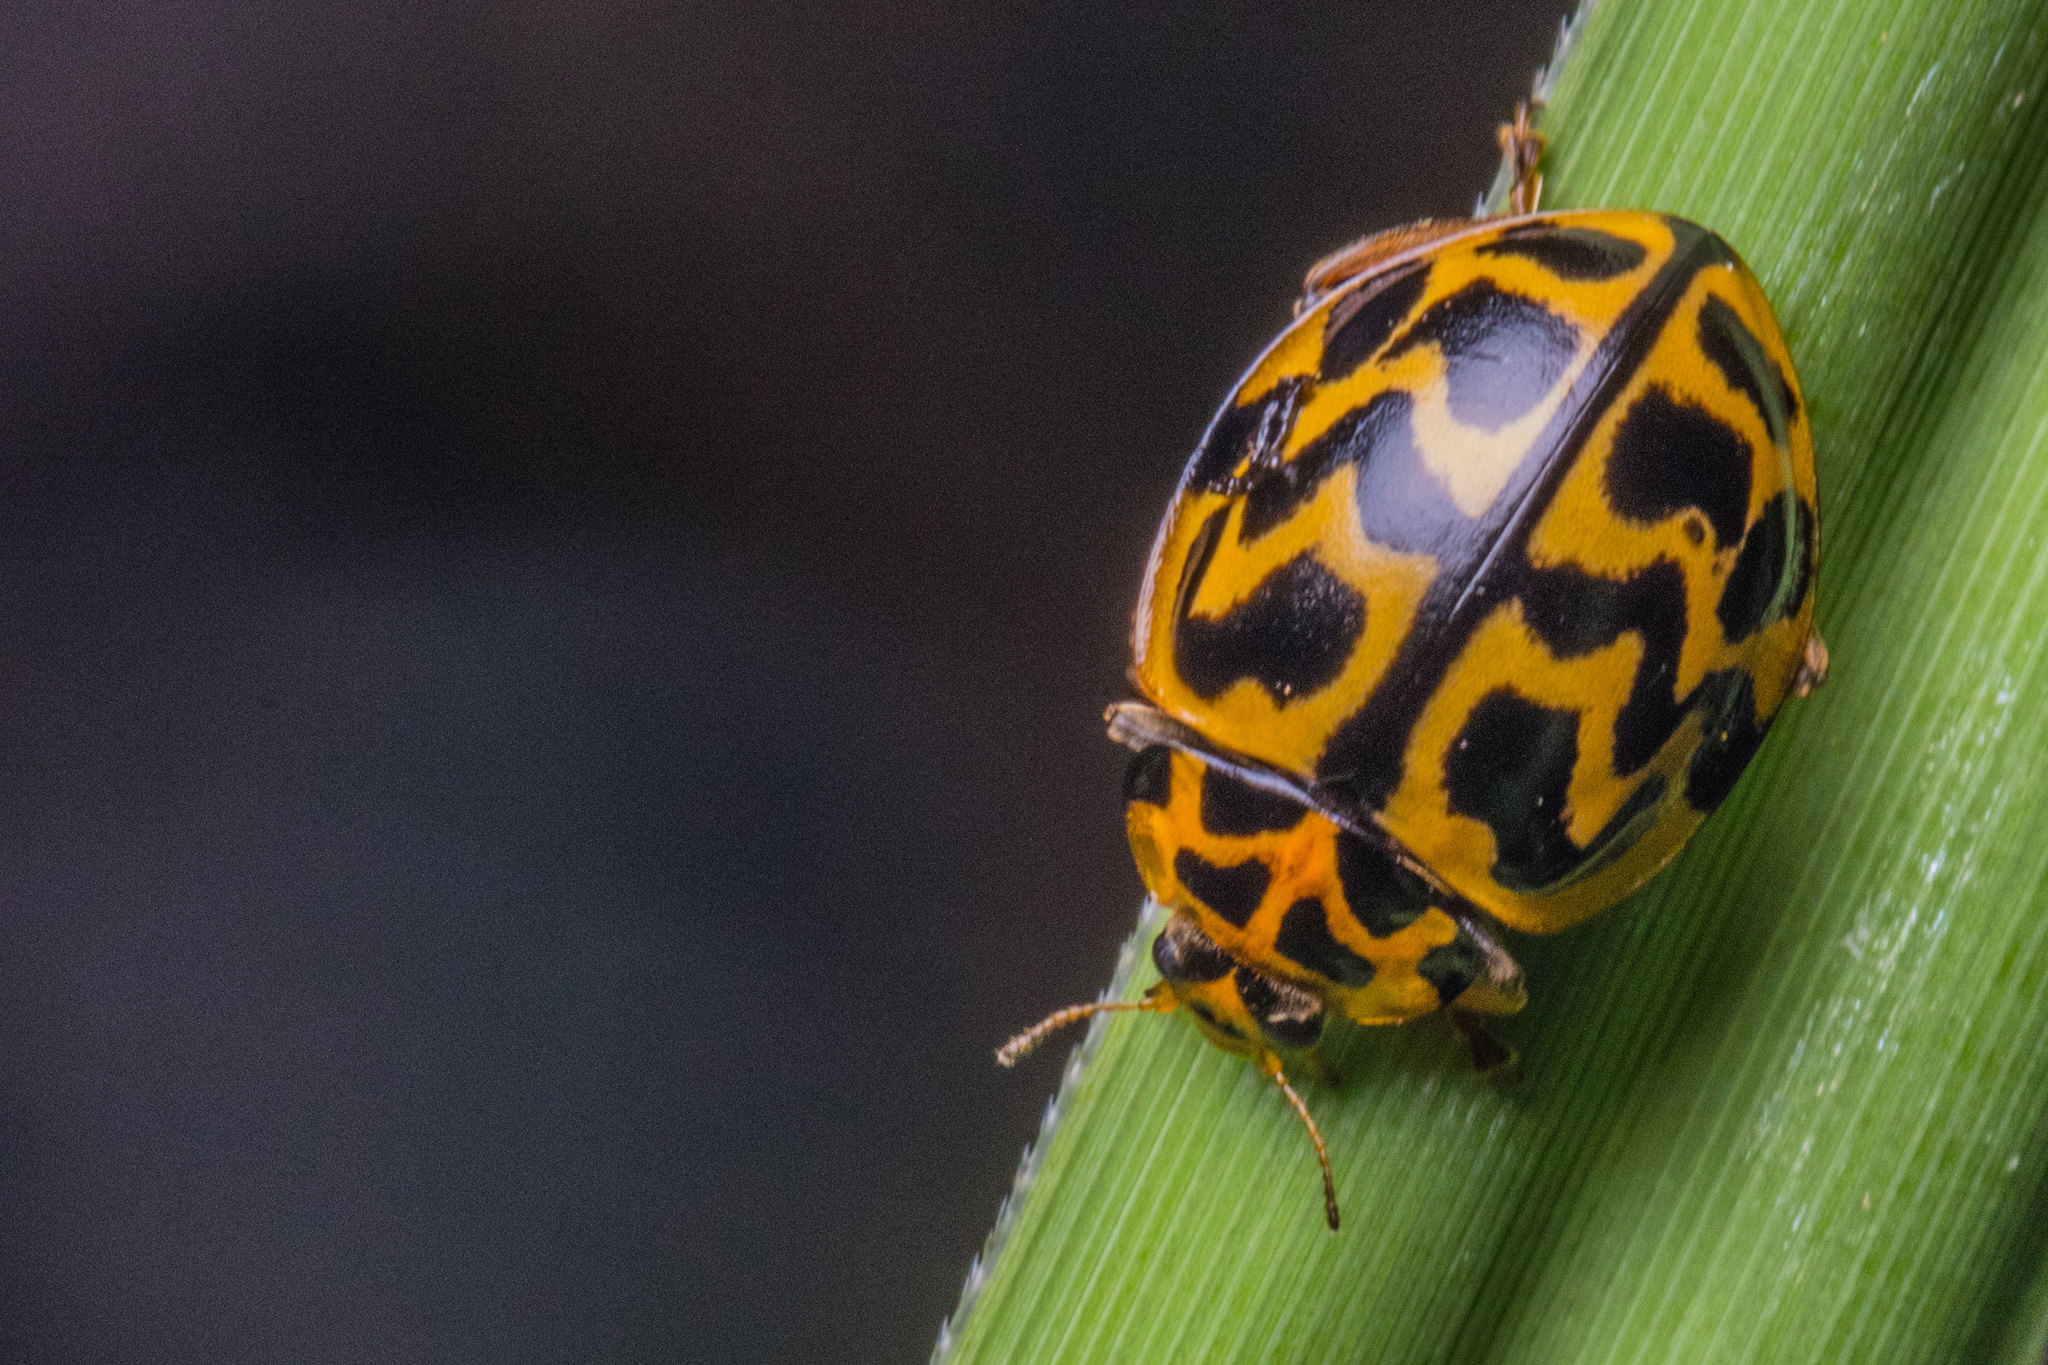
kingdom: Animalia
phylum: Arthropoda
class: Insecta
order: Coleoptera
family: Coccinellidae
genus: Cleobora
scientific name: Cleobora
